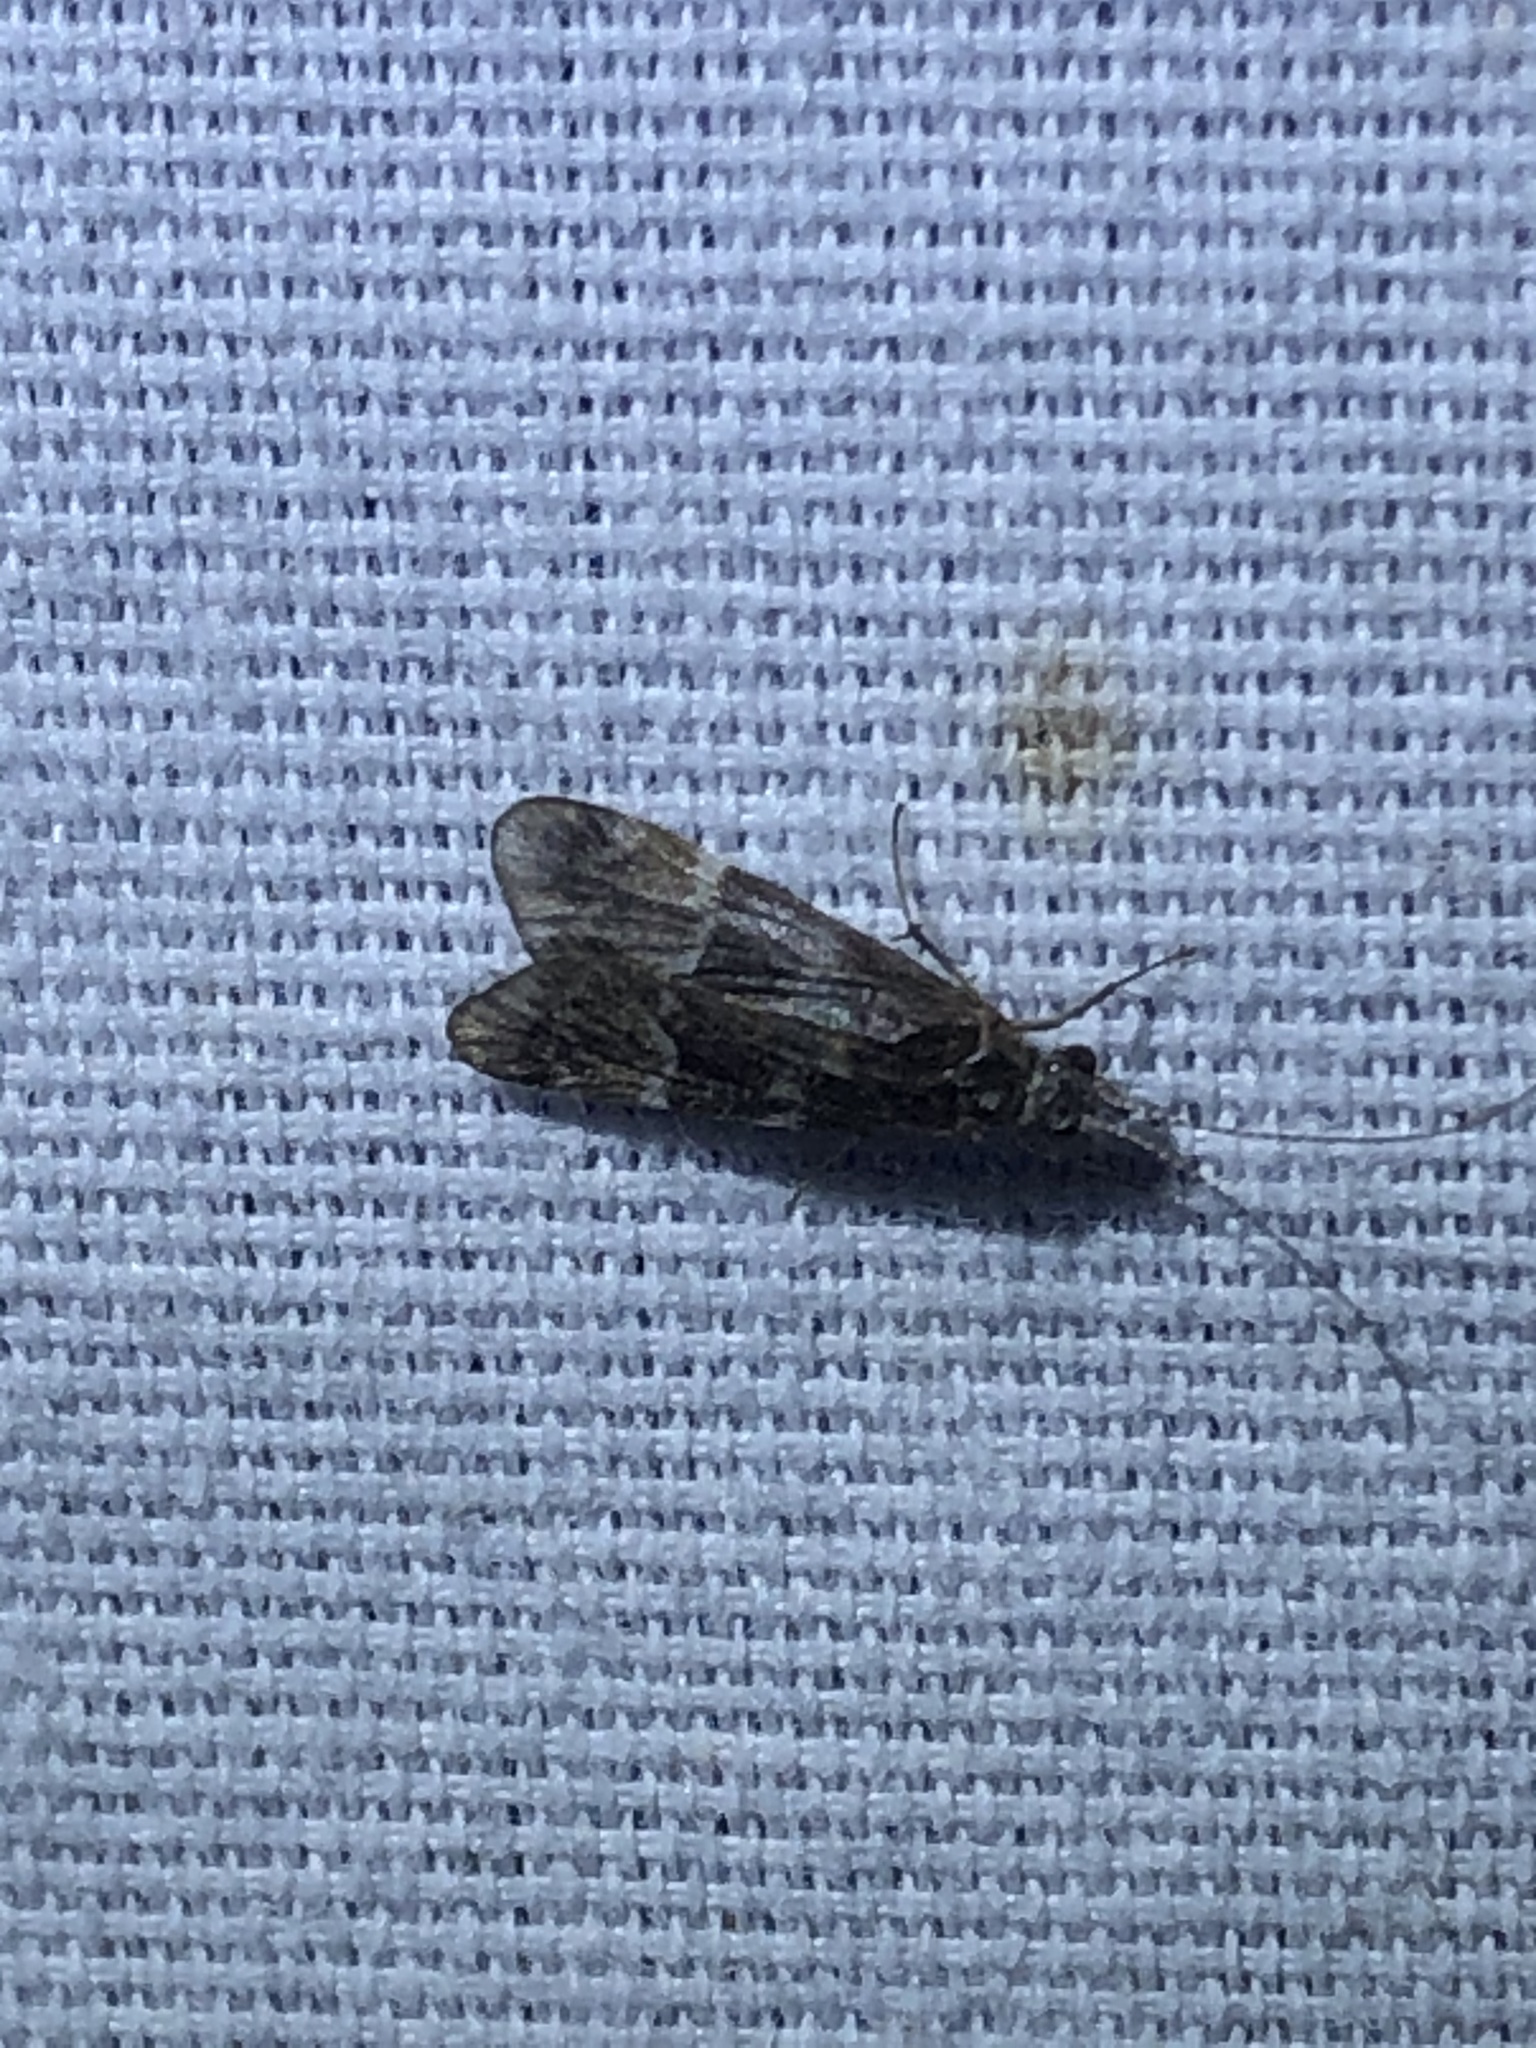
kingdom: Animalia
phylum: Arthropoda
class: Insecta
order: Trichoptera
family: Hydropsychidae
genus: Smicridea
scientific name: Smicridea fasciatella
